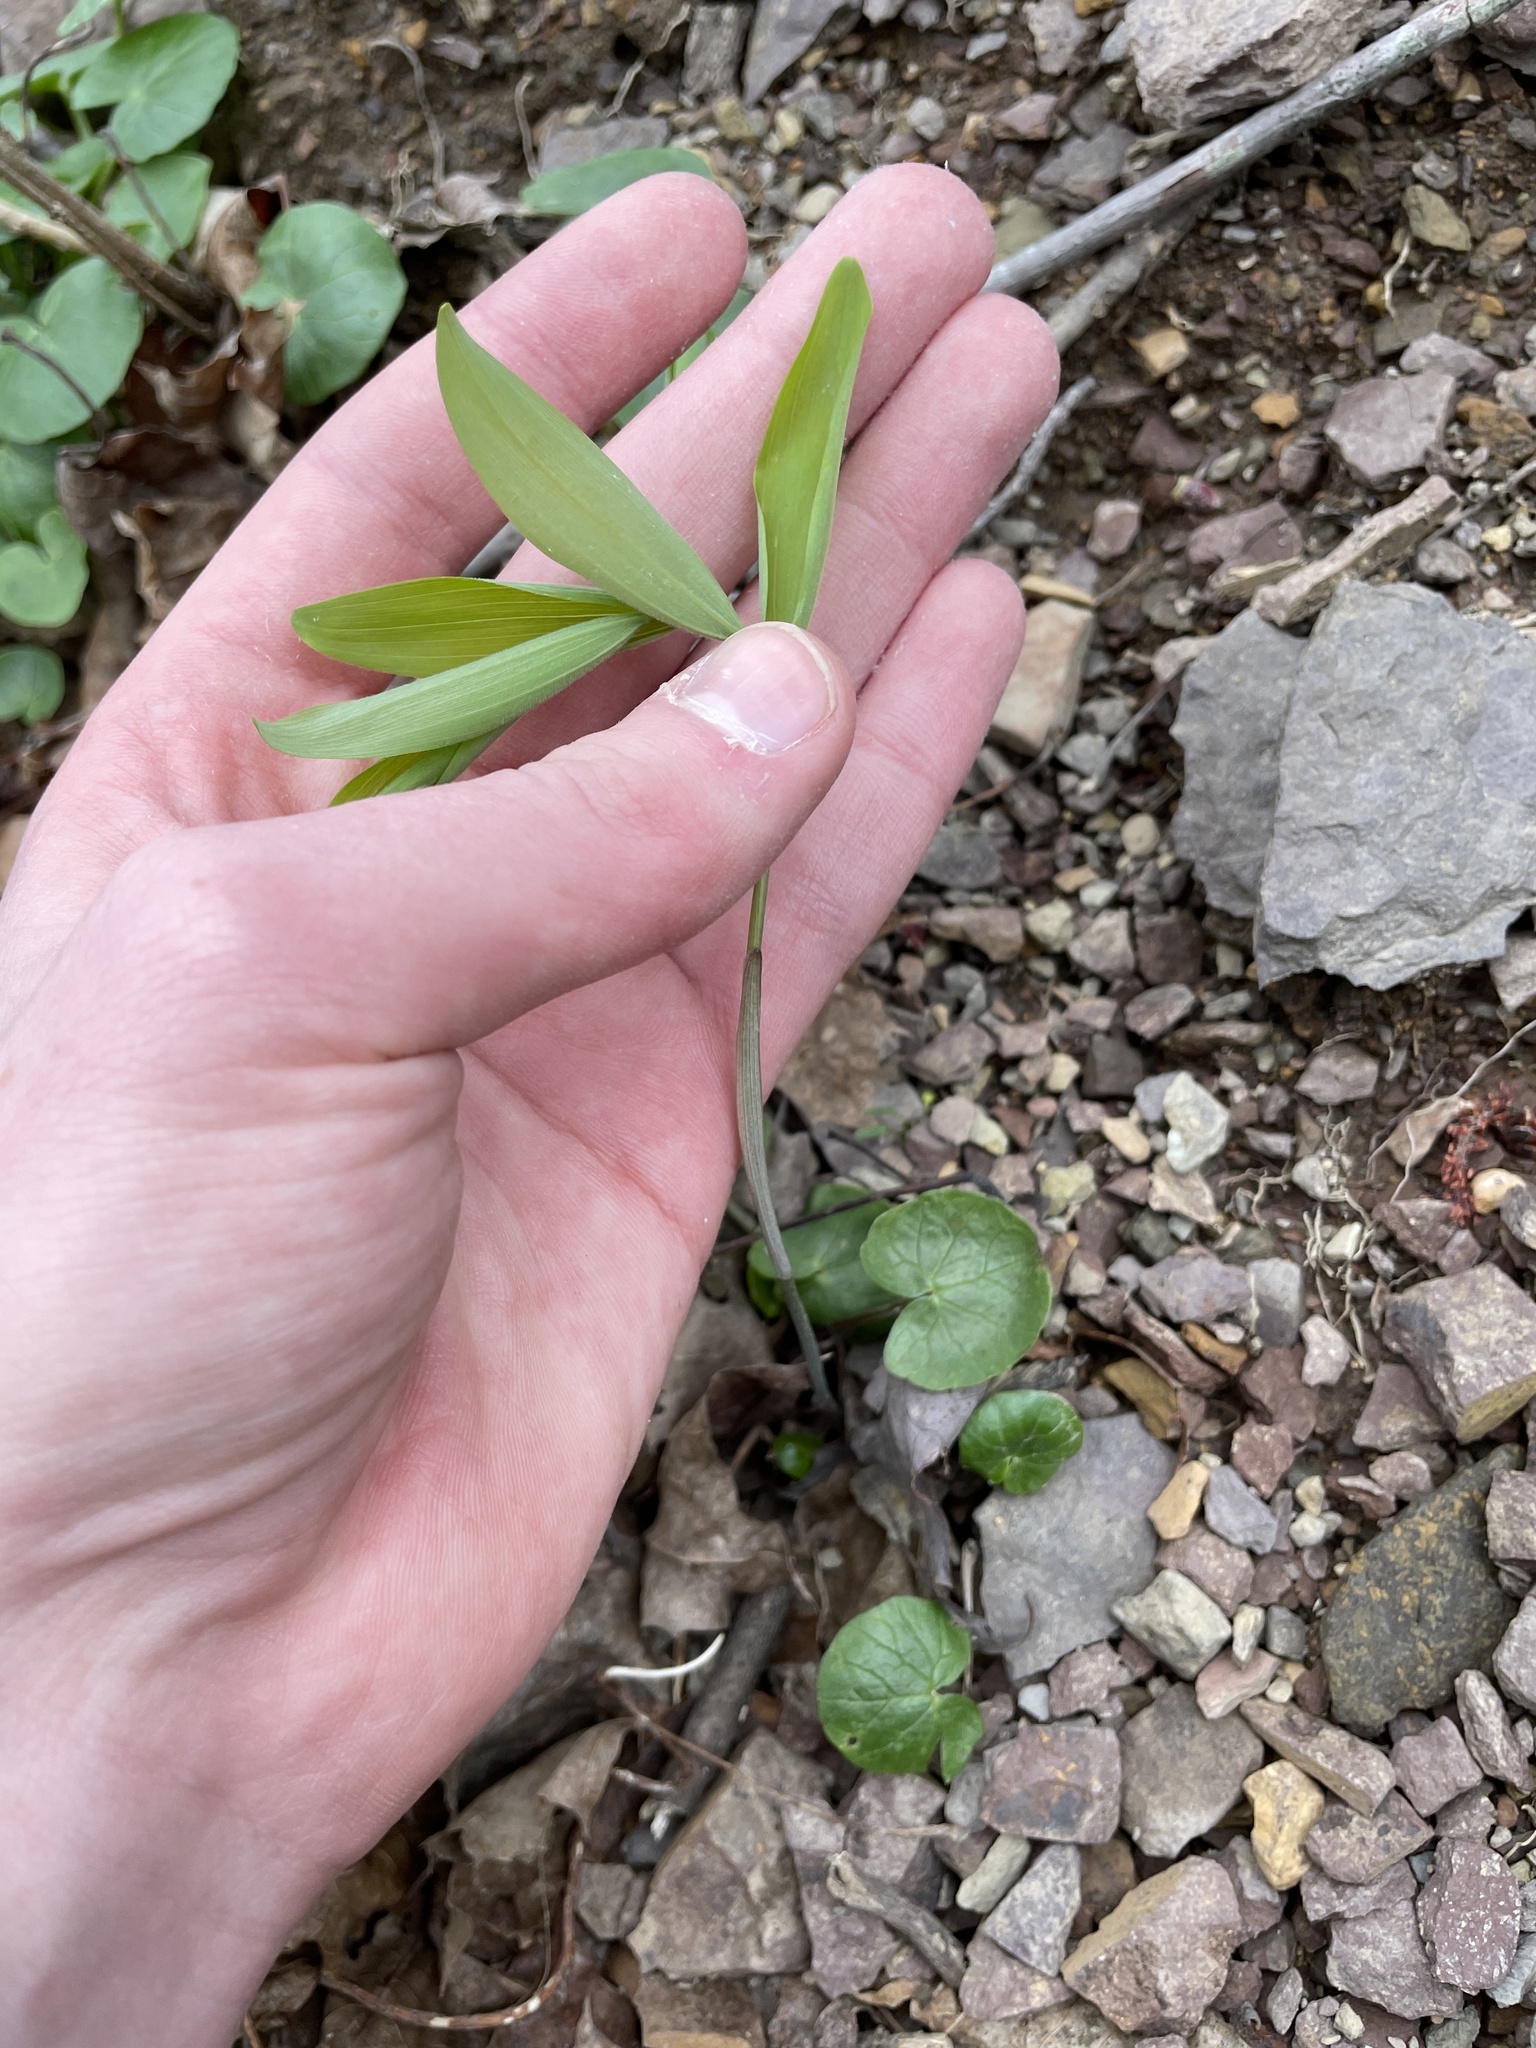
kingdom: Plantae
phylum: Tracheophyta
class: Liliopsida
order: Liliales
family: Colchicaceae
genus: Uvularia
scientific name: Uvularia sessilifolia
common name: Straw-lily
